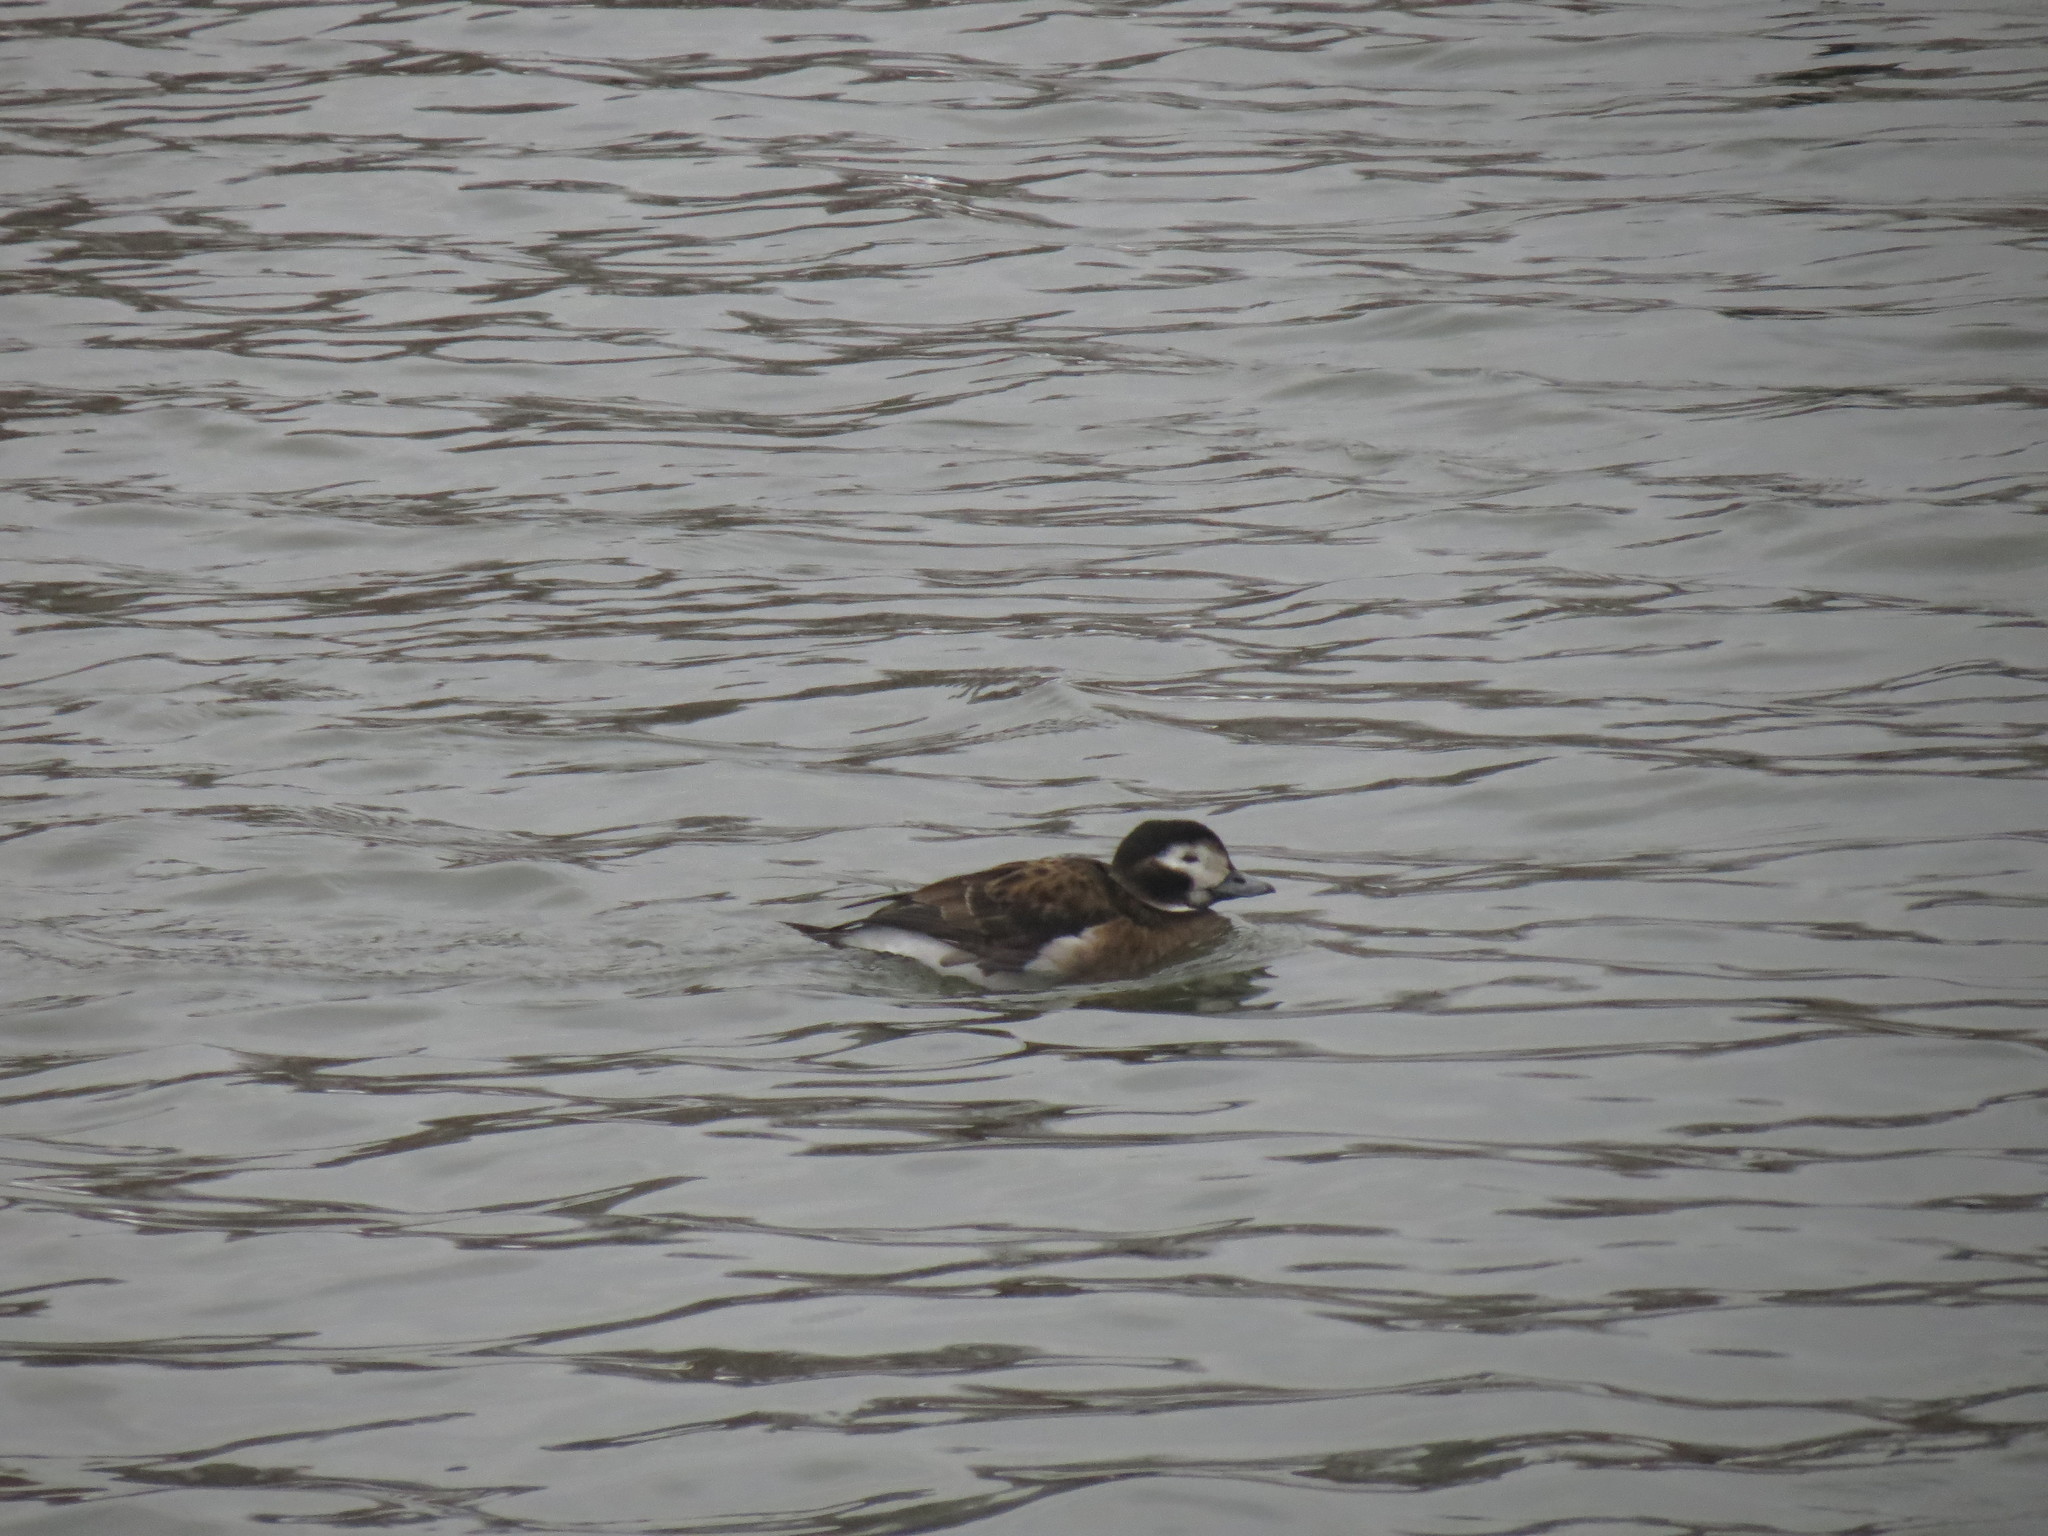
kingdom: Animalia
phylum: Chordata
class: Aves
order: Anseriformes
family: Anatidae
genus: Clangula
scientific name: Clangula hyemalis
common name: Long-tailed duck
